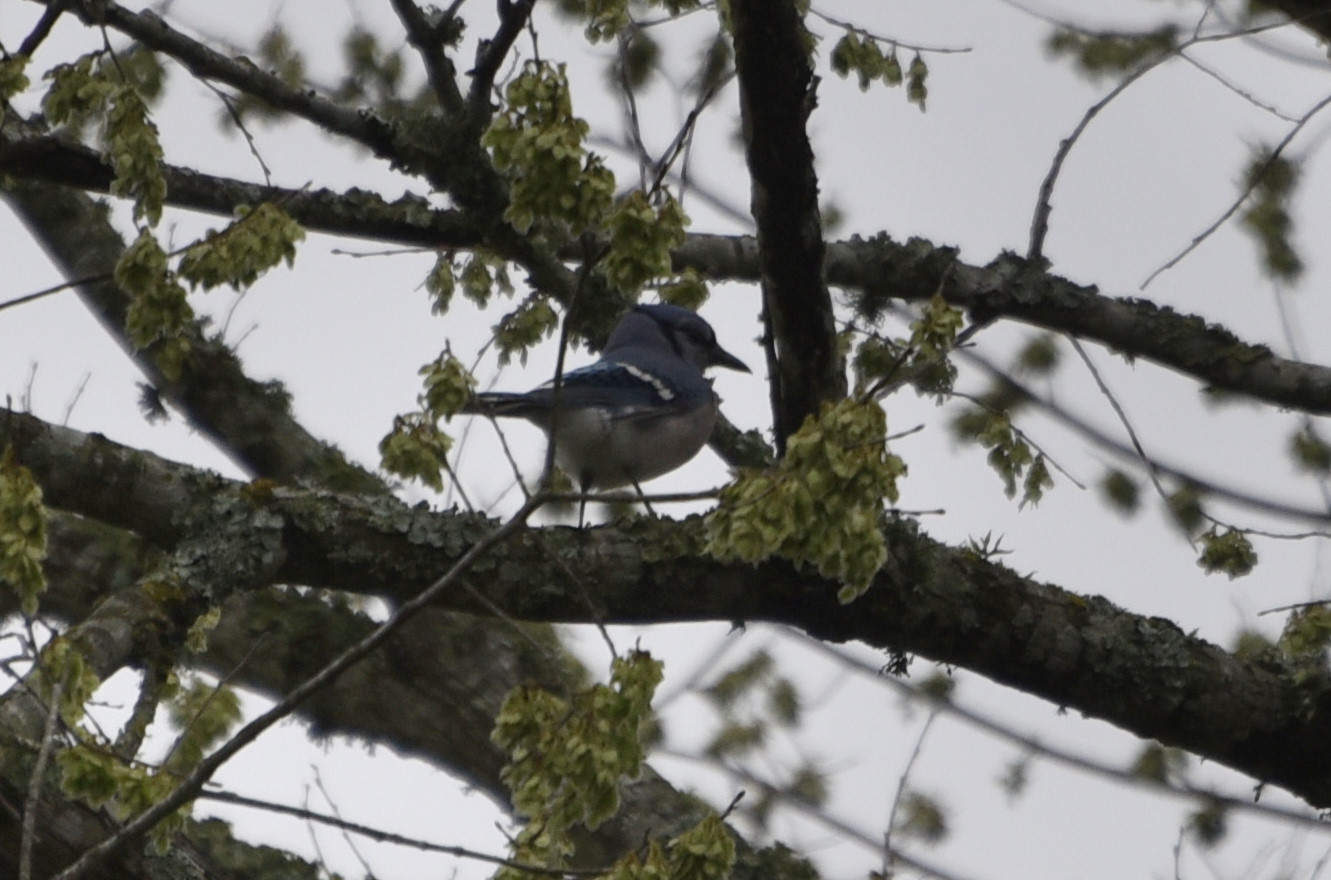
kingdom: Animalia
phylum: Chordata
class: Aves
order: Passeriformes
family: Corvidae
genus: Cyanocitta
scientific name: Cyanocitta cristata
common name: Blue jay
